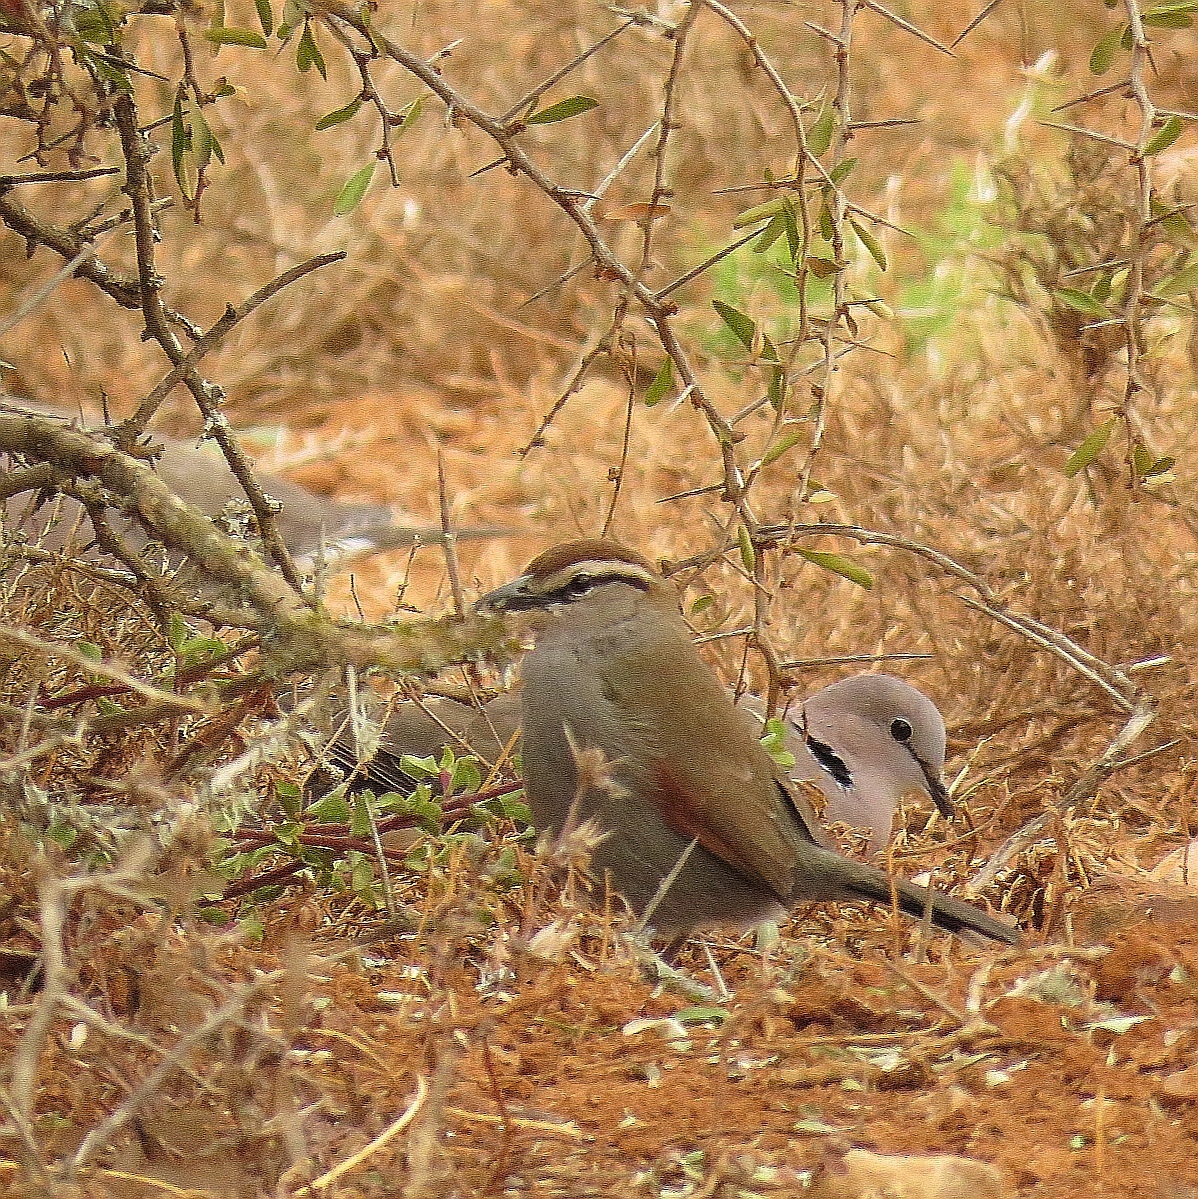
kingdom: Animalia
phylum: Chordata
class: Aves
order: Passeriformes
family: Malaconotidae
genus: Tchagra
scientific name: Tchagra tchagra
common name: Southern tchagra
